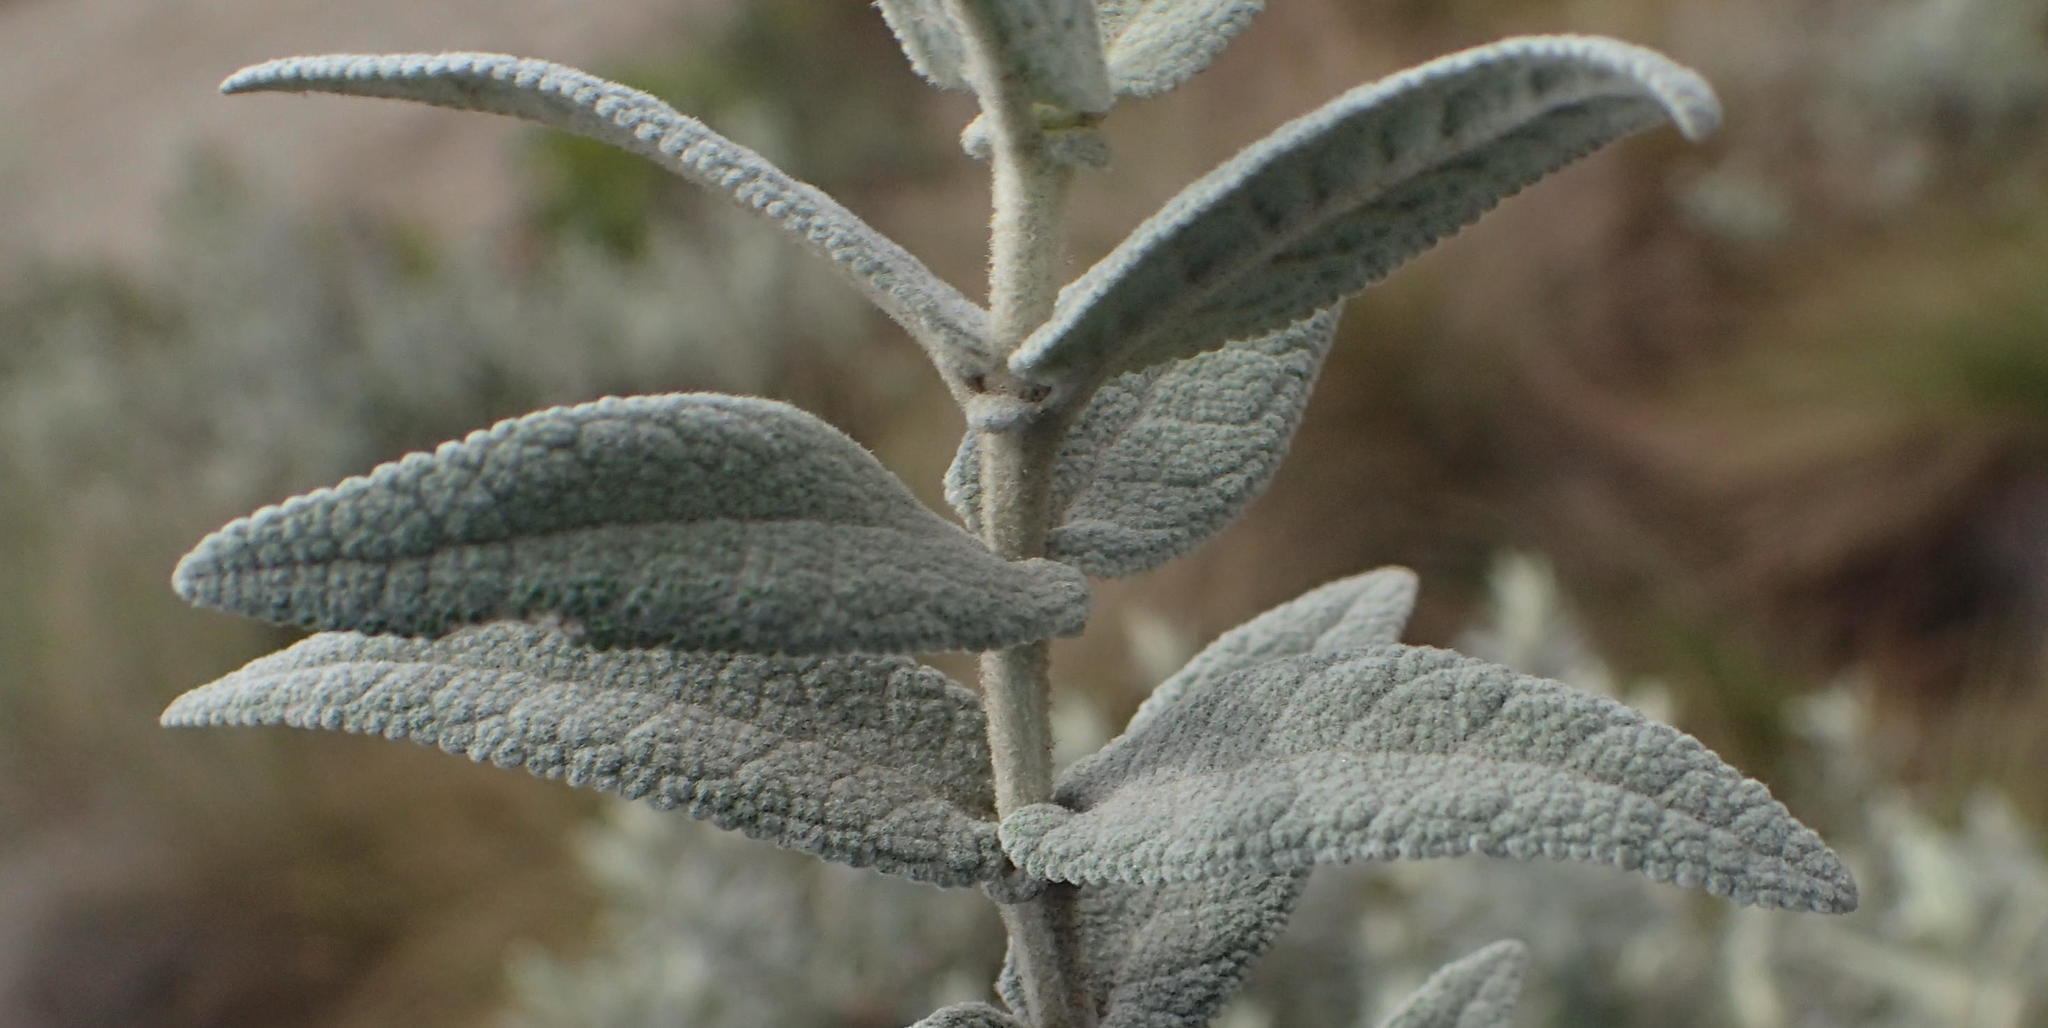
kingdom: Plantae
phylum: Tracheophyta
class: Magnoliopsida
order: Lamiales
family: Scrophulariaceae
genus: Buddleja
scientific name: Buddleja salviifolia
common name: Sagewood
